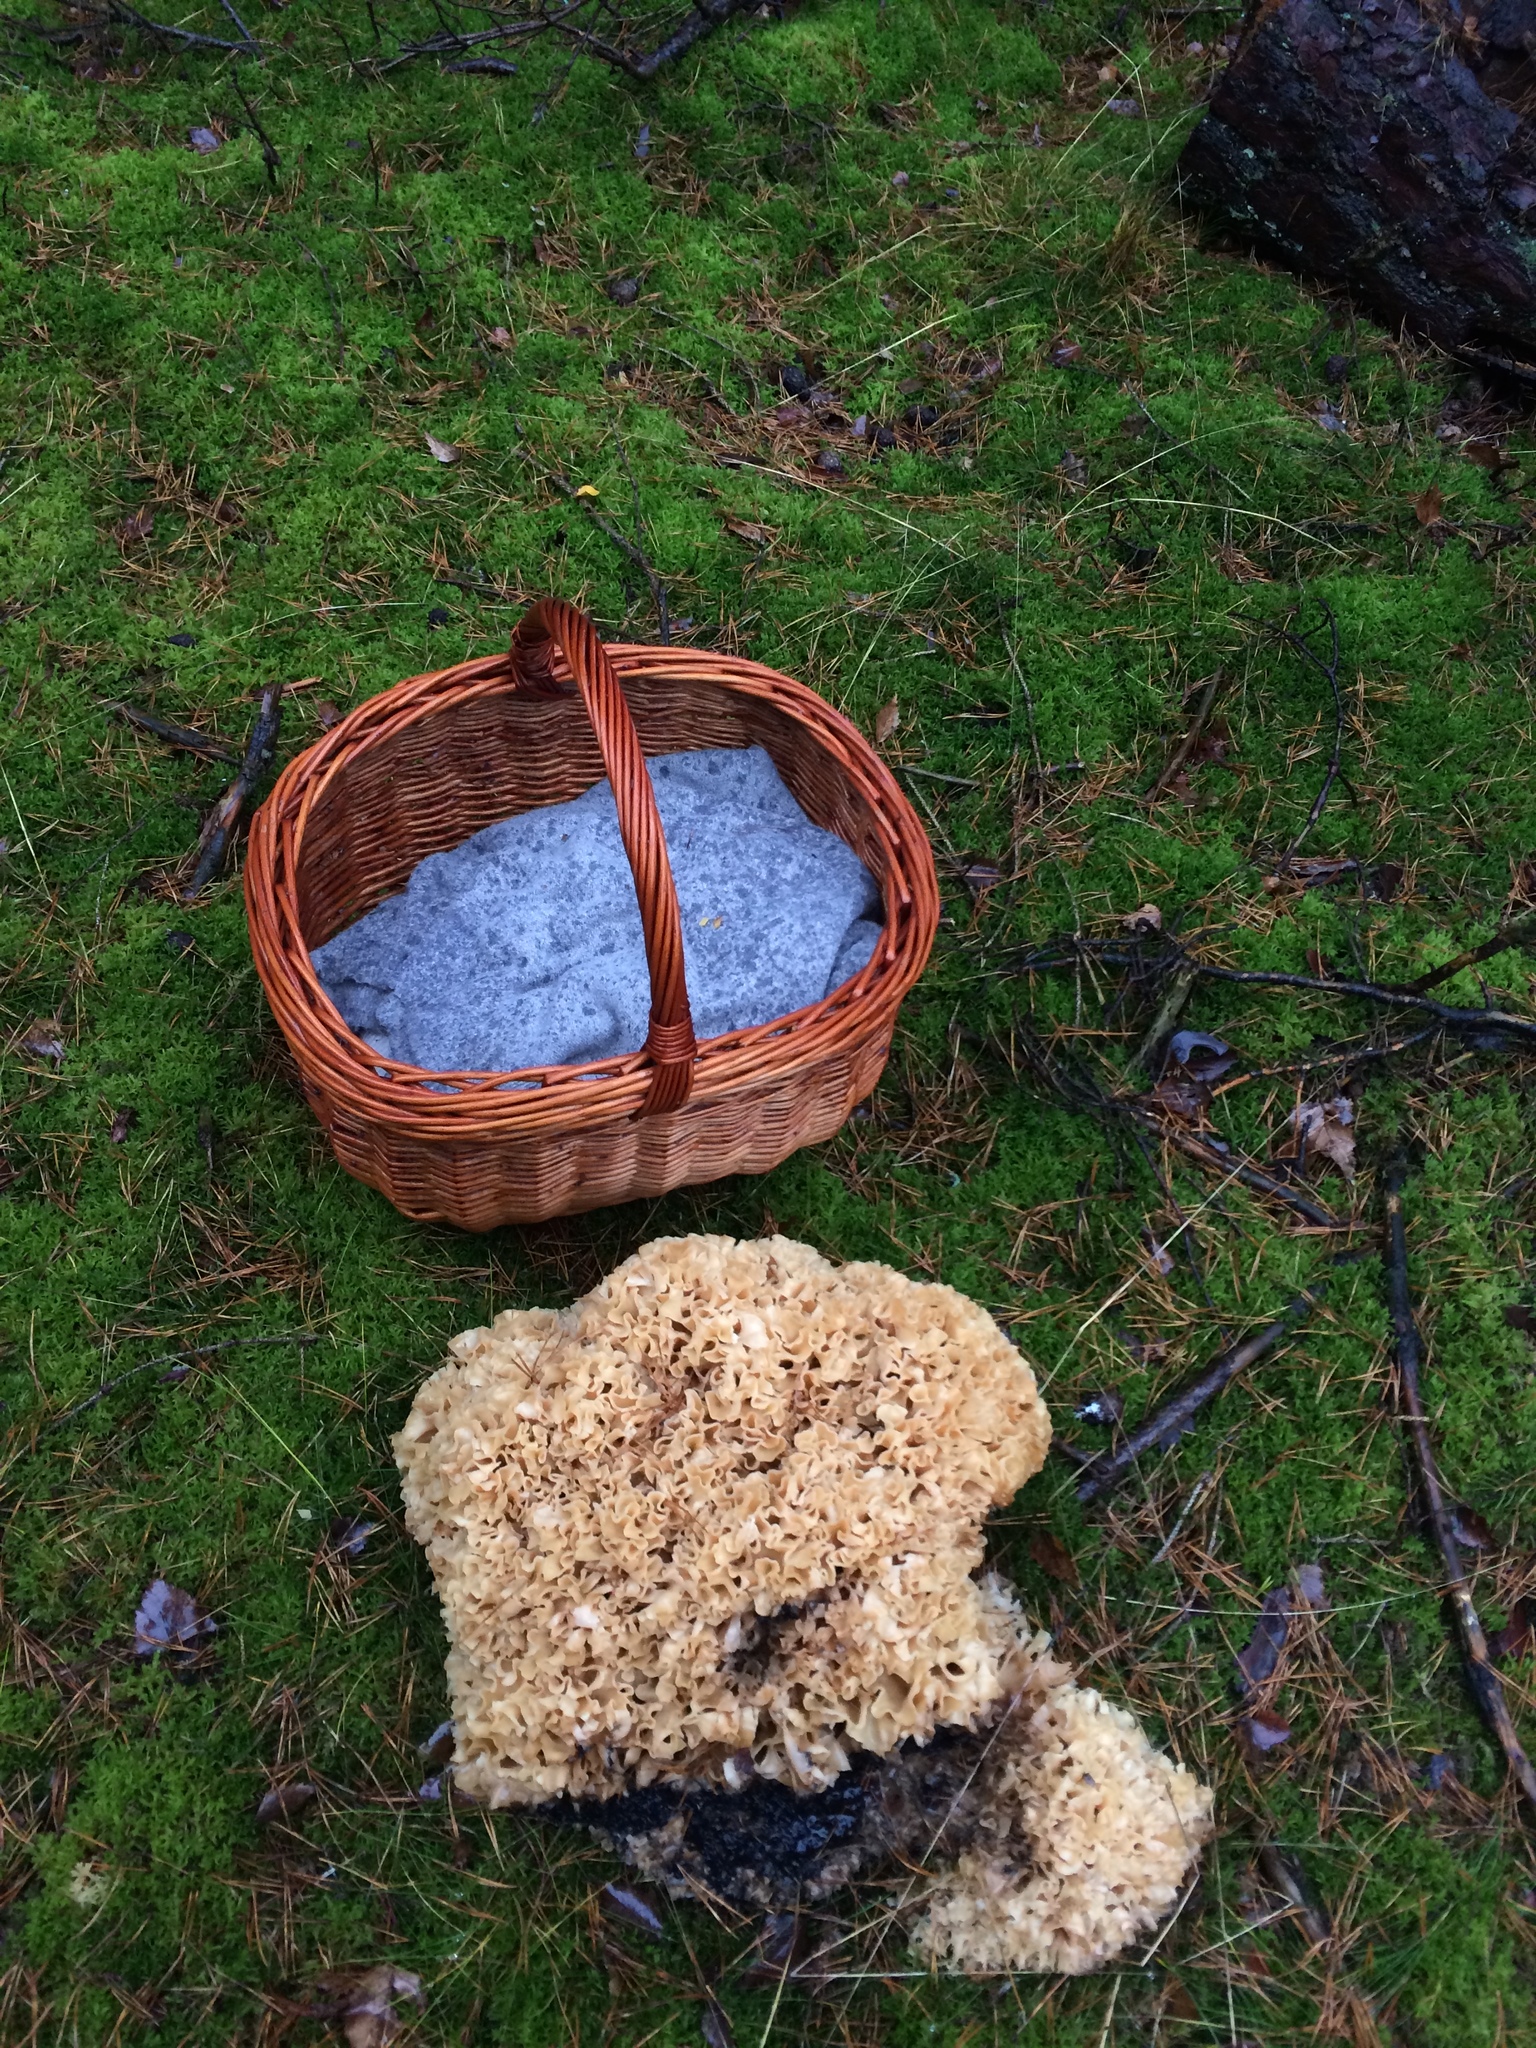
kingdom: Fungi
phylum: Basidiomycota
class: Agaricomycetes
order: Polyporales
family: Sparassidaceae
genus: Sparassis
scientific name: Sparassis crispa
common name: Brain fungus
